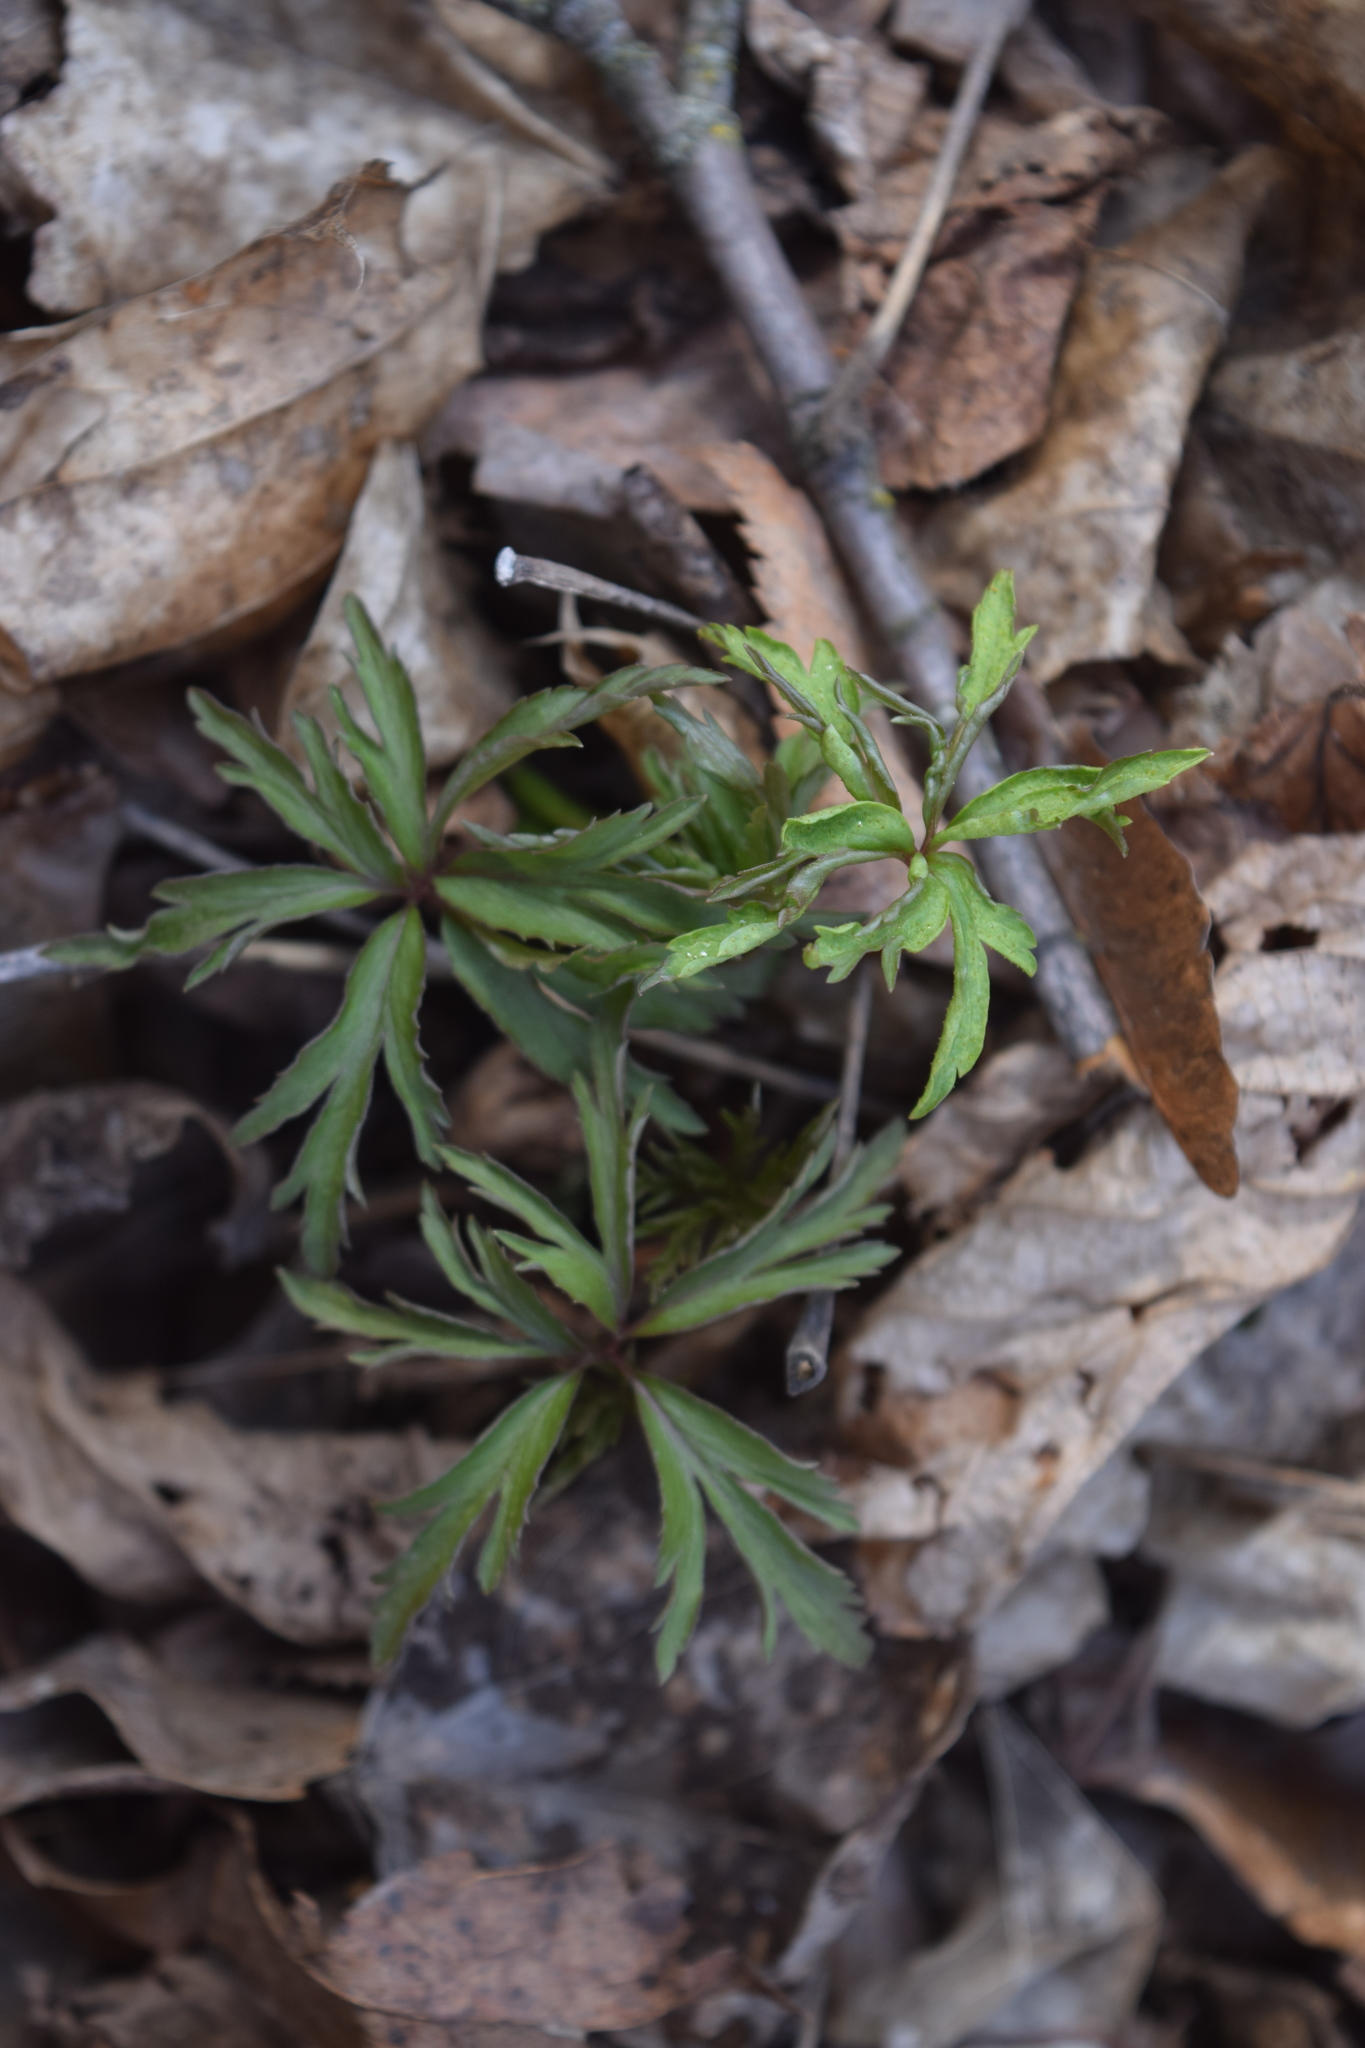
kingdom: Plantae
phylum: Tracheophyta
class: Magnoliopsida
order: Ranunculales
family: Ranunculaceae
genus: Anemone
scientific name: Anemone ranunculoides
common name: Yellow anemone
